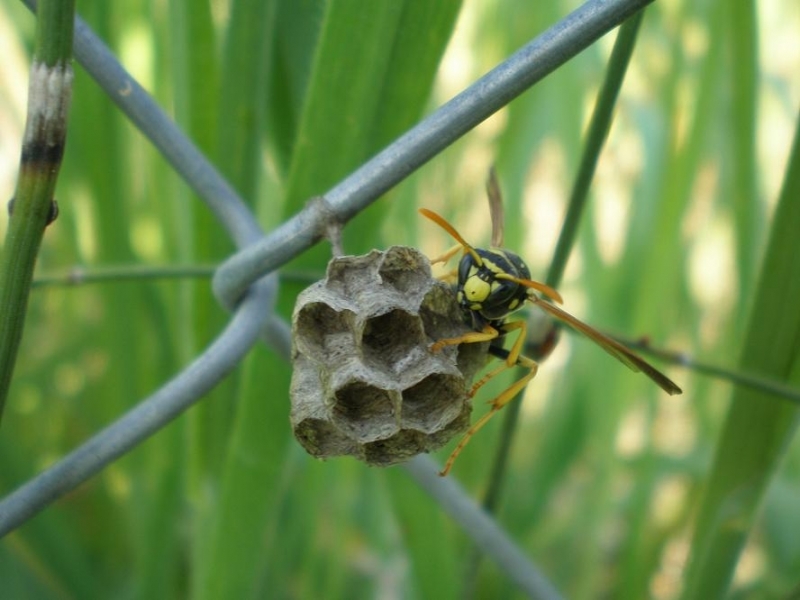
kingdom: Animalia
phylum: Arthropoda
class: Insecta
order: Hymenoptera
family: Eumenidae
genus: Polistes
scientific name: Polistes gallicus
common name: Paper wasp
